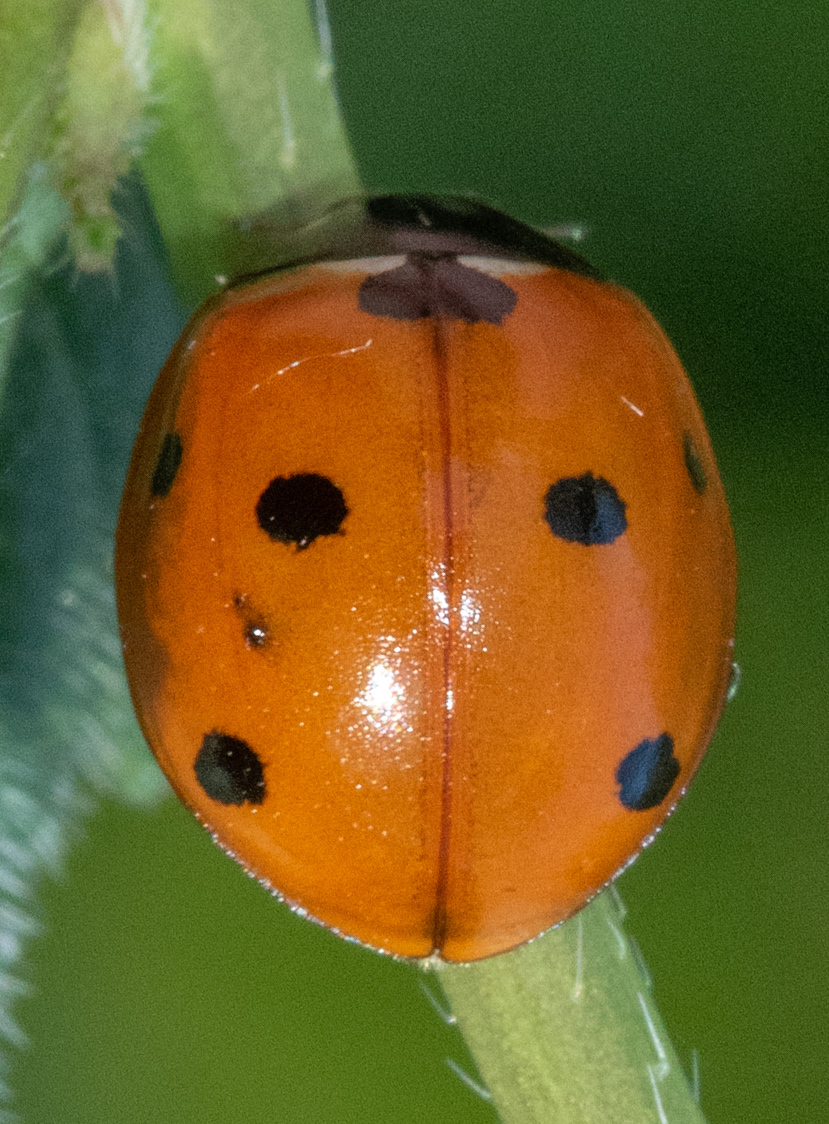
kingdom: Animalia
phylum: Arthropoda
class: Insecta
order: Coleoptera
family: Coccinellidae
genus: Coccinella
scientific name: Coccinella septempunctata
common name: Sevenspotted lady beetle
